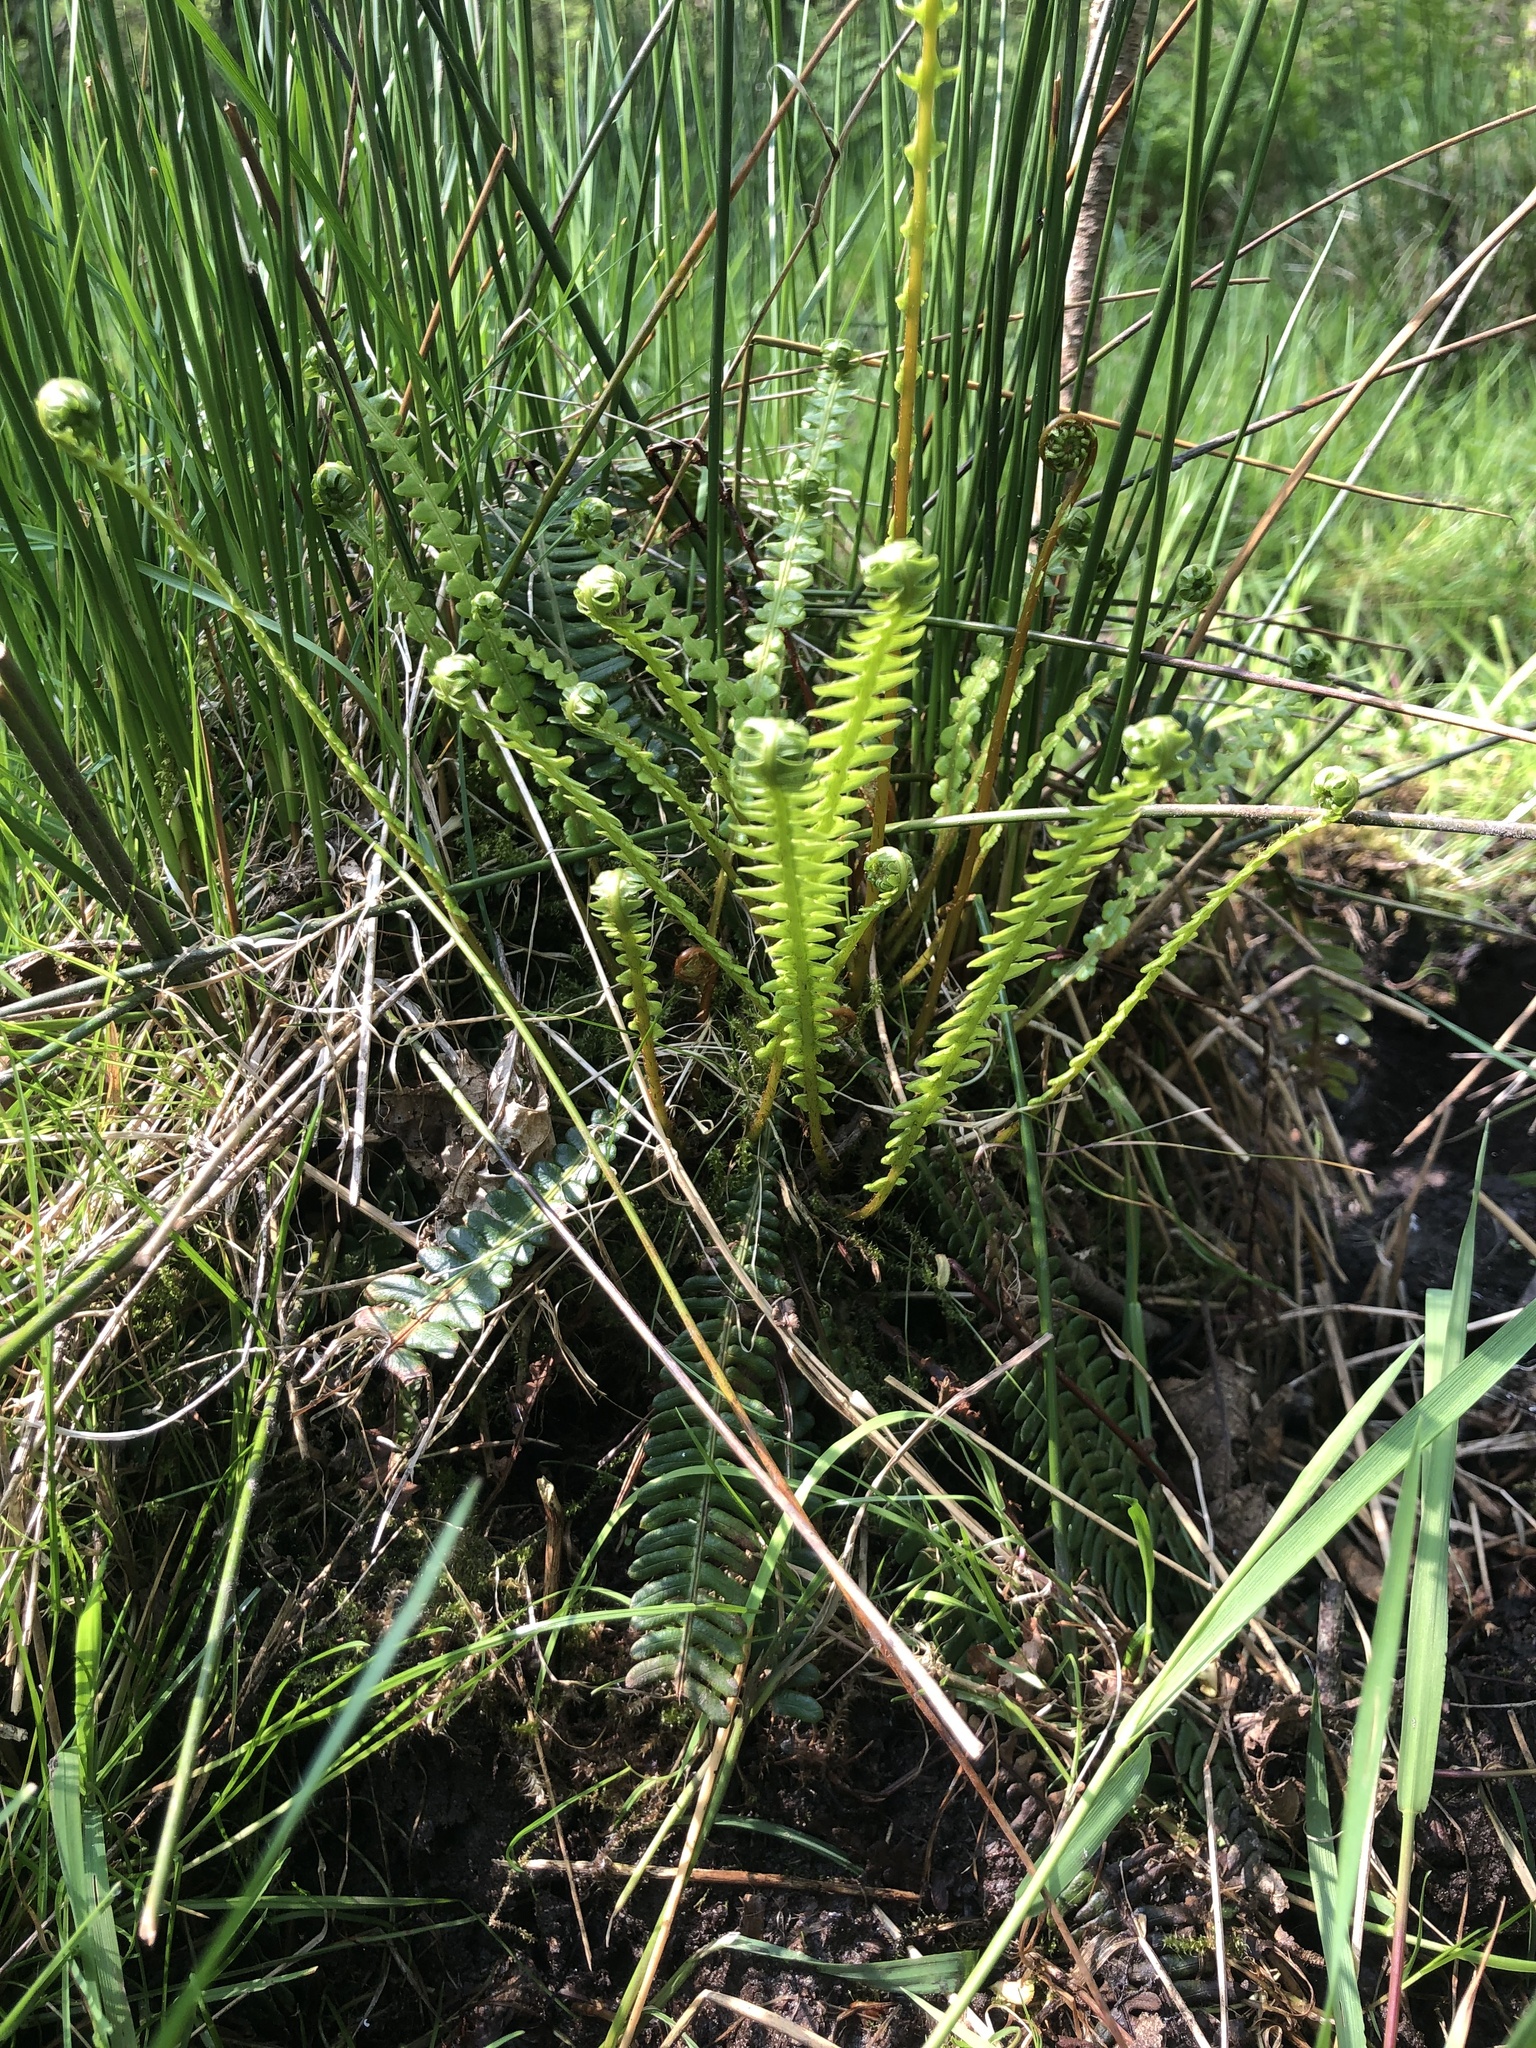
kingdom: Plantae
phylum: Tracheophyta
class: Polypodiopsida
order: Polypodiales
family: Blechnaceae
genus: Struthiopteris
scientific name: Struthiopteris spicant
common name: Deer fern
